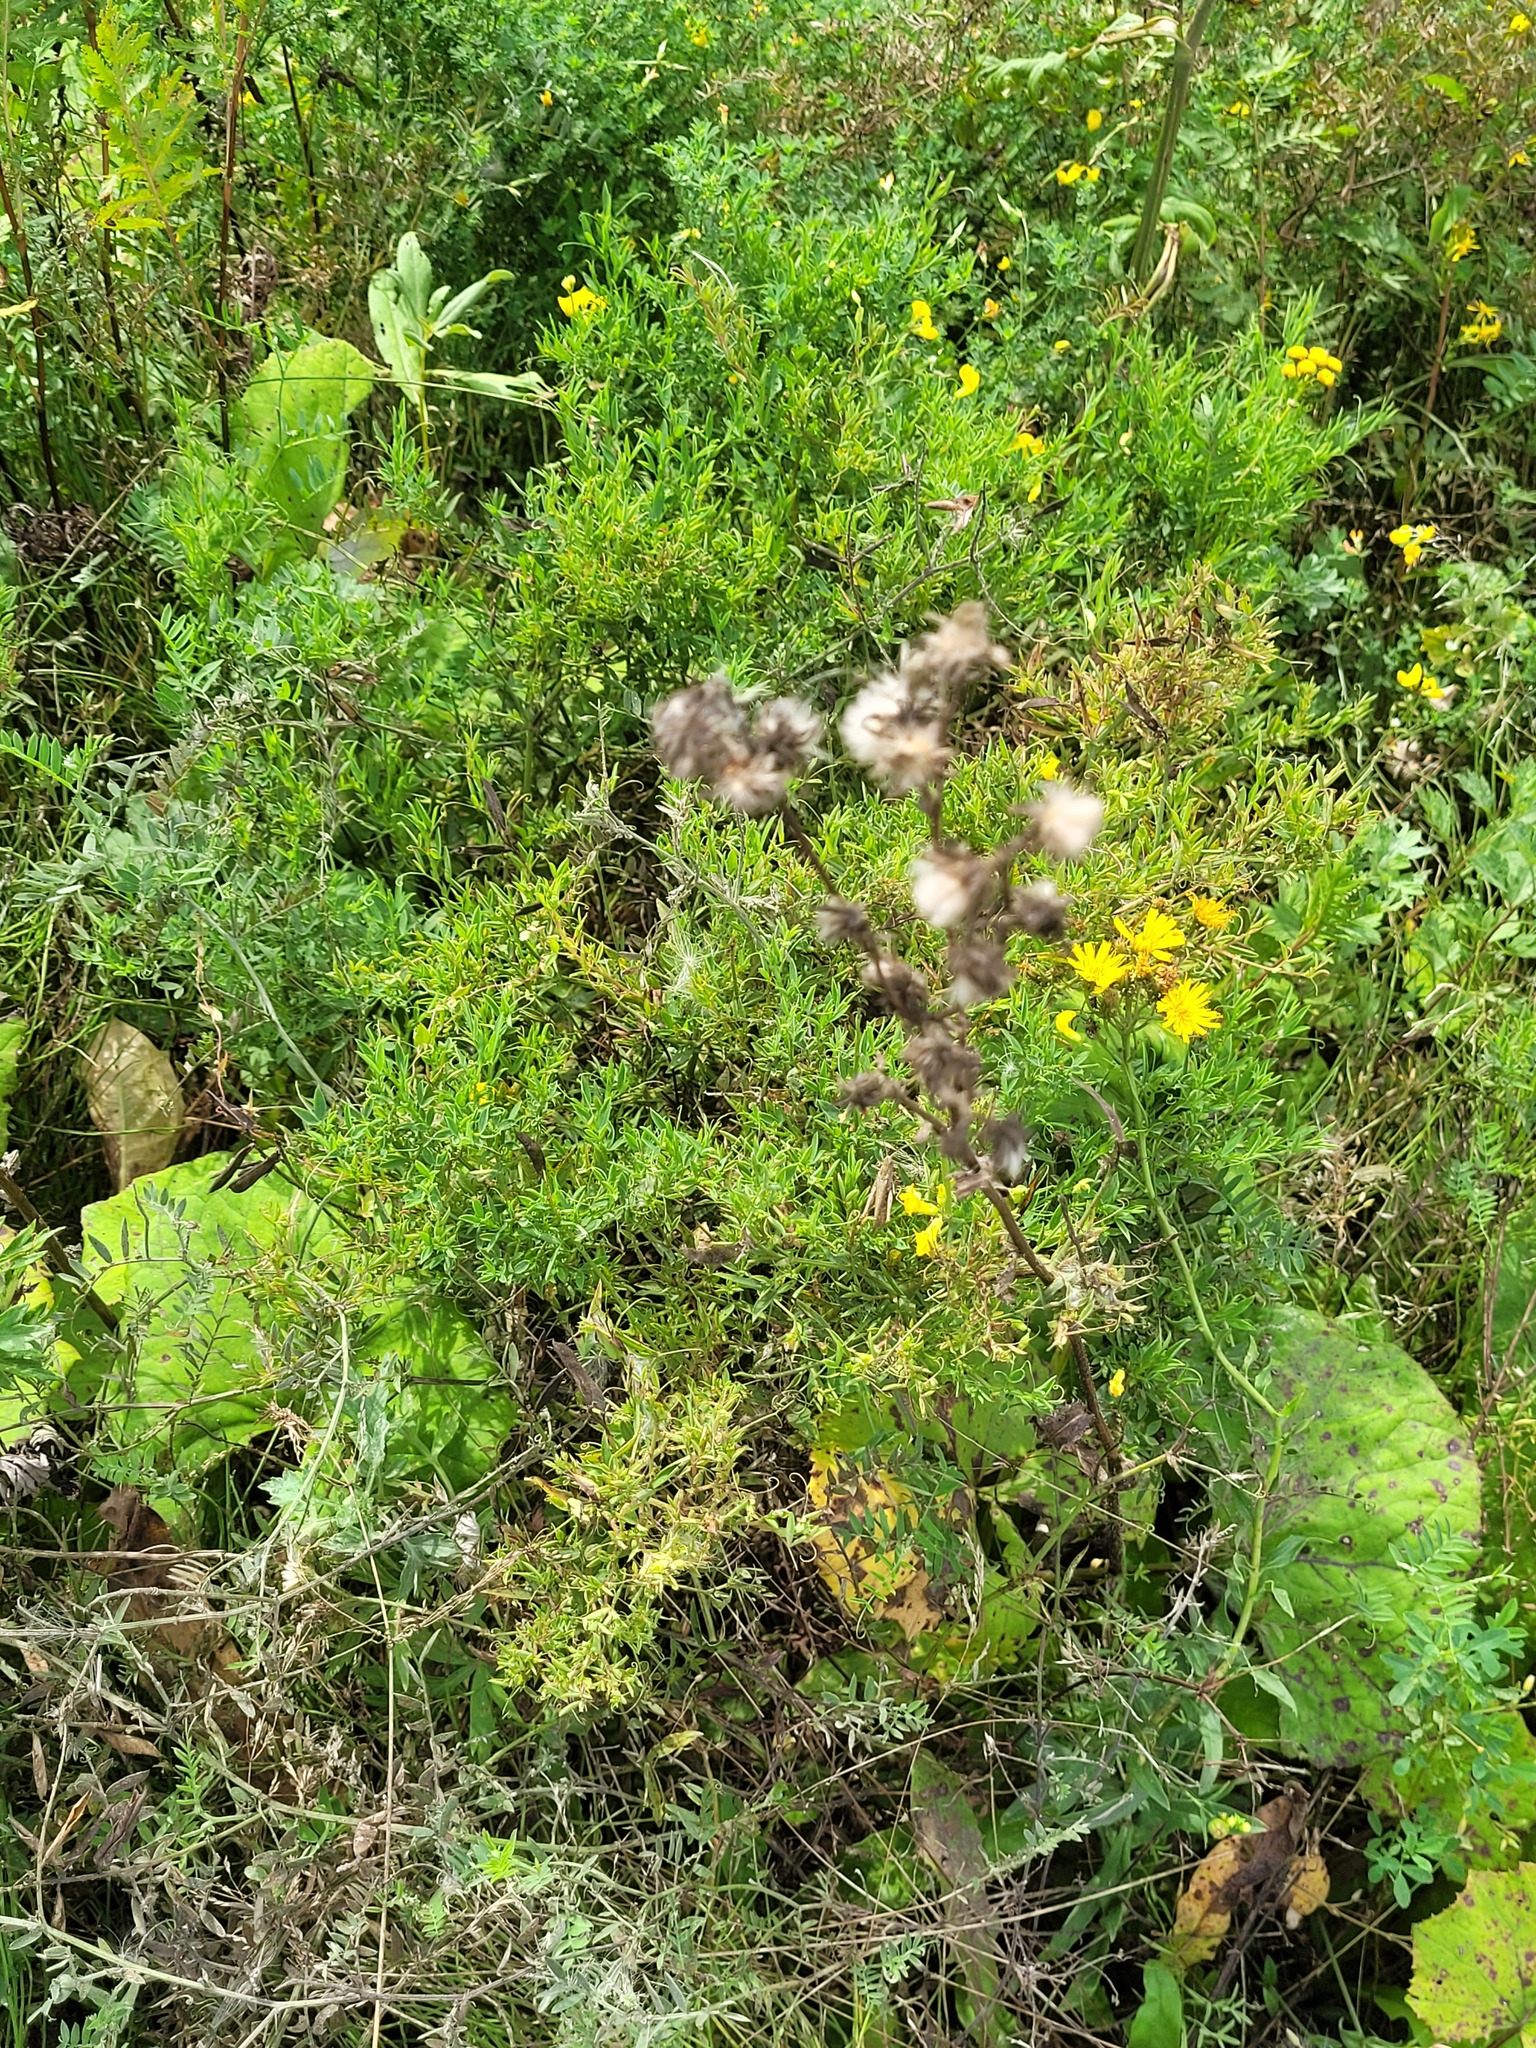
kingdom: Plantae
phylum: Tracheophyta
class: Magnoliopsida
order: Fabales
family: Fabaceae
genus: Lathyrus
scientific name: Lathyrus pratensis
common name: Meadow vetchling
